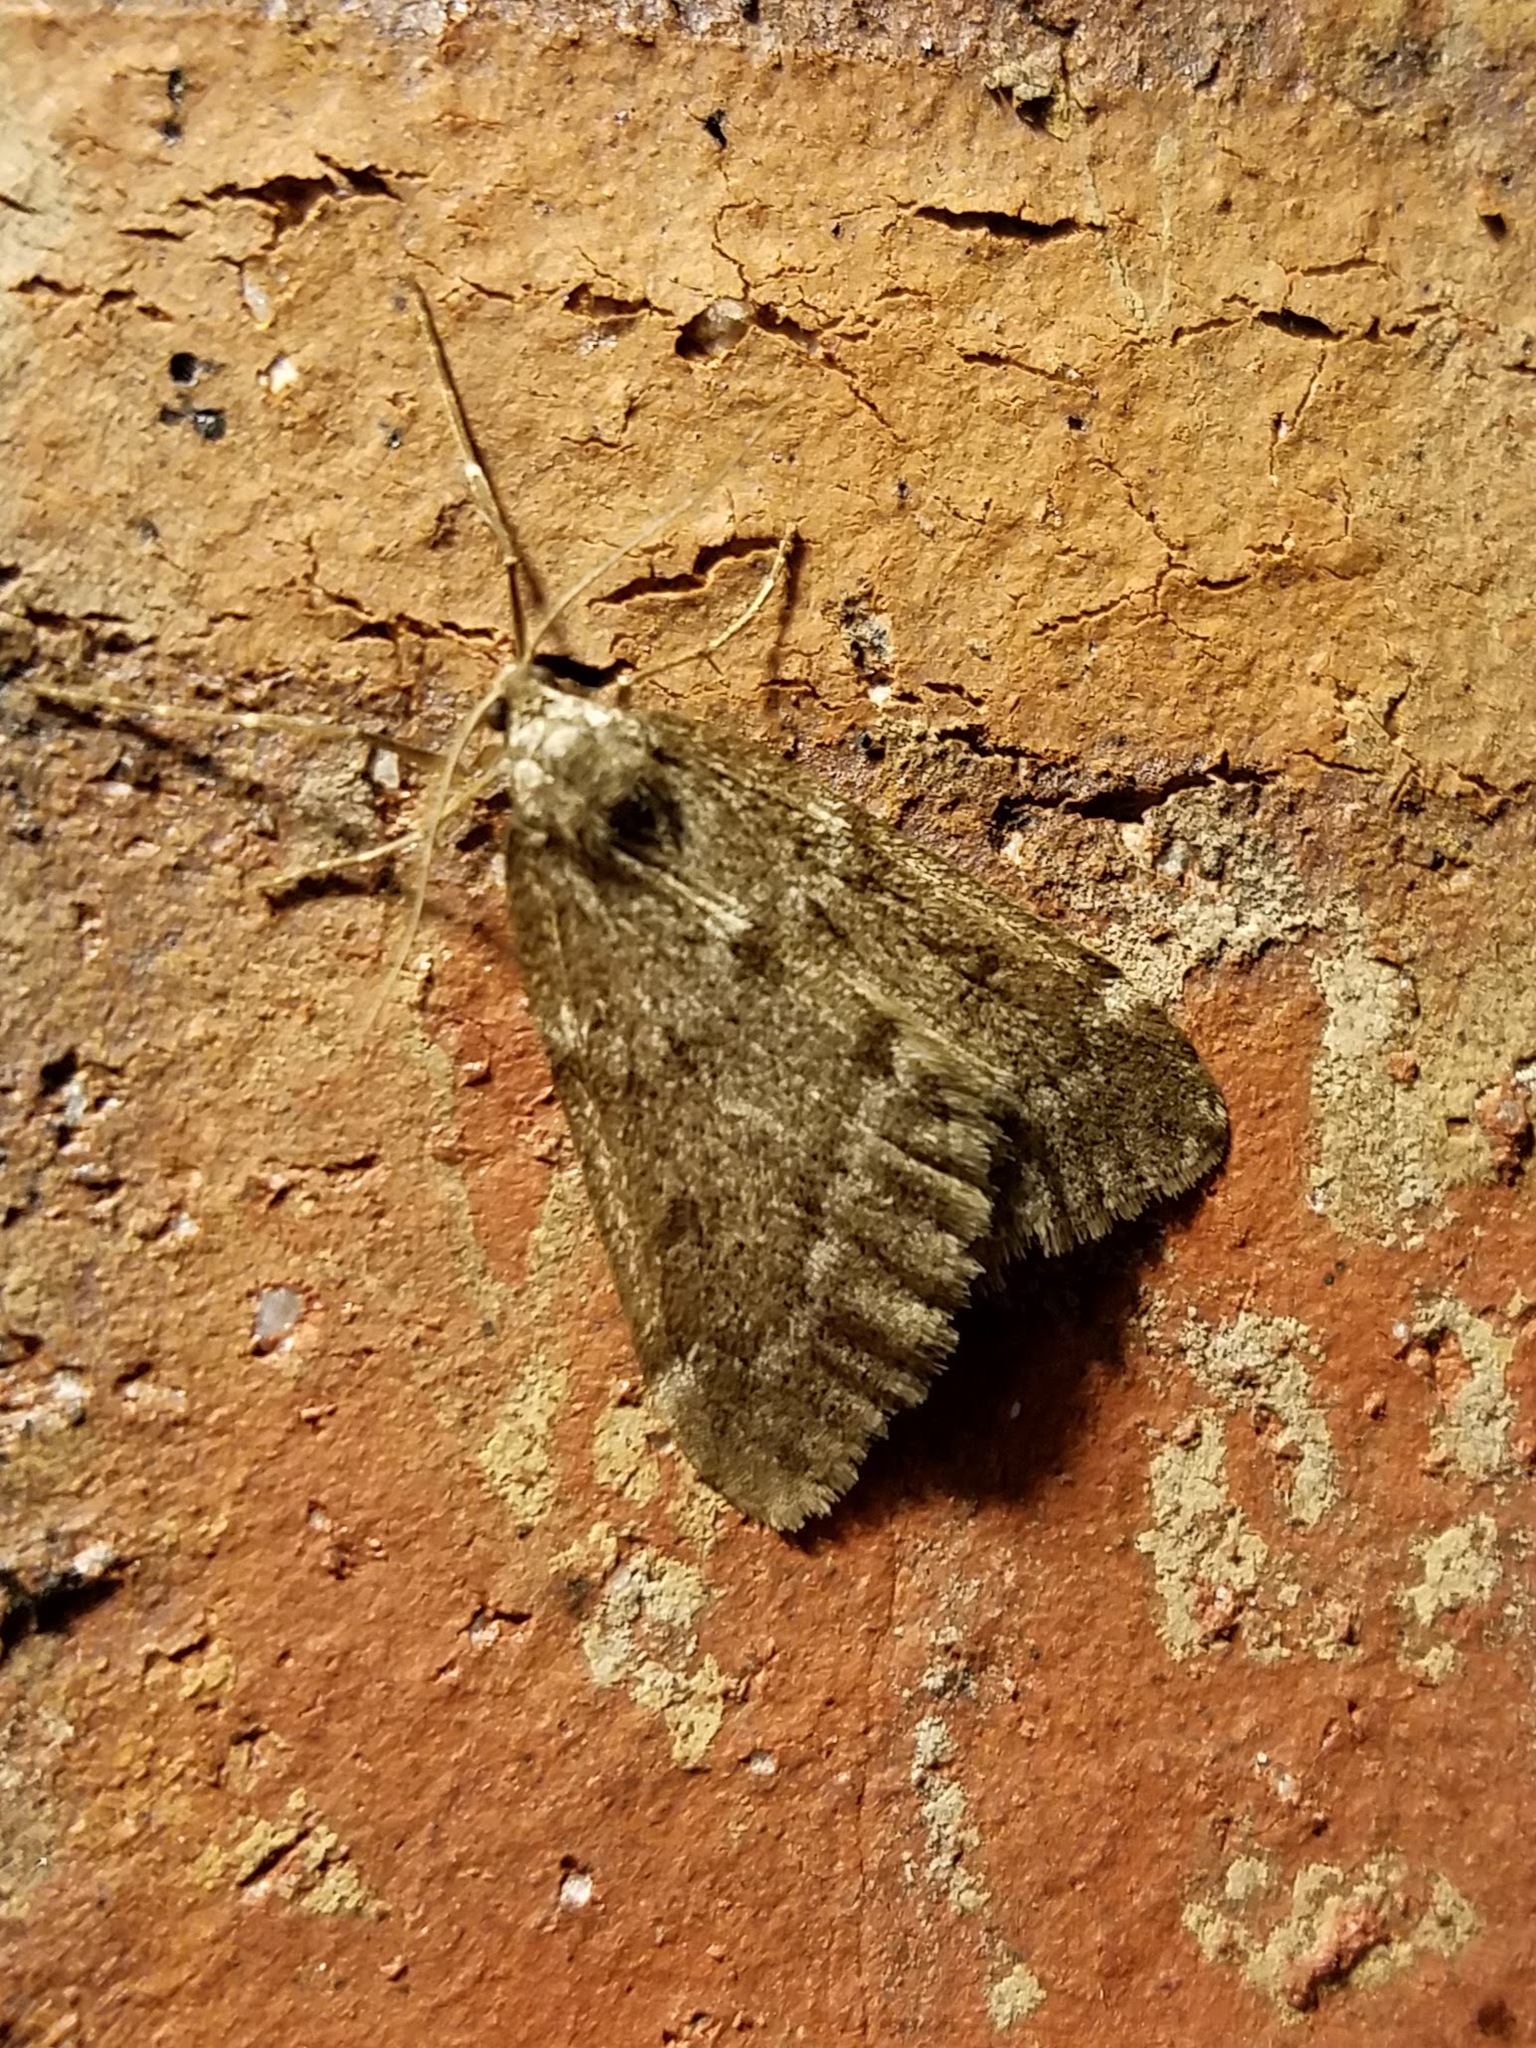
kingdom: Animalia
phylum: Arthropoda
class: Insecta
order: Lepidoptera
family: Geometridae
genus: Alsophila
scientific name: Alsophila pometaria
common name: Fall cankerworm
